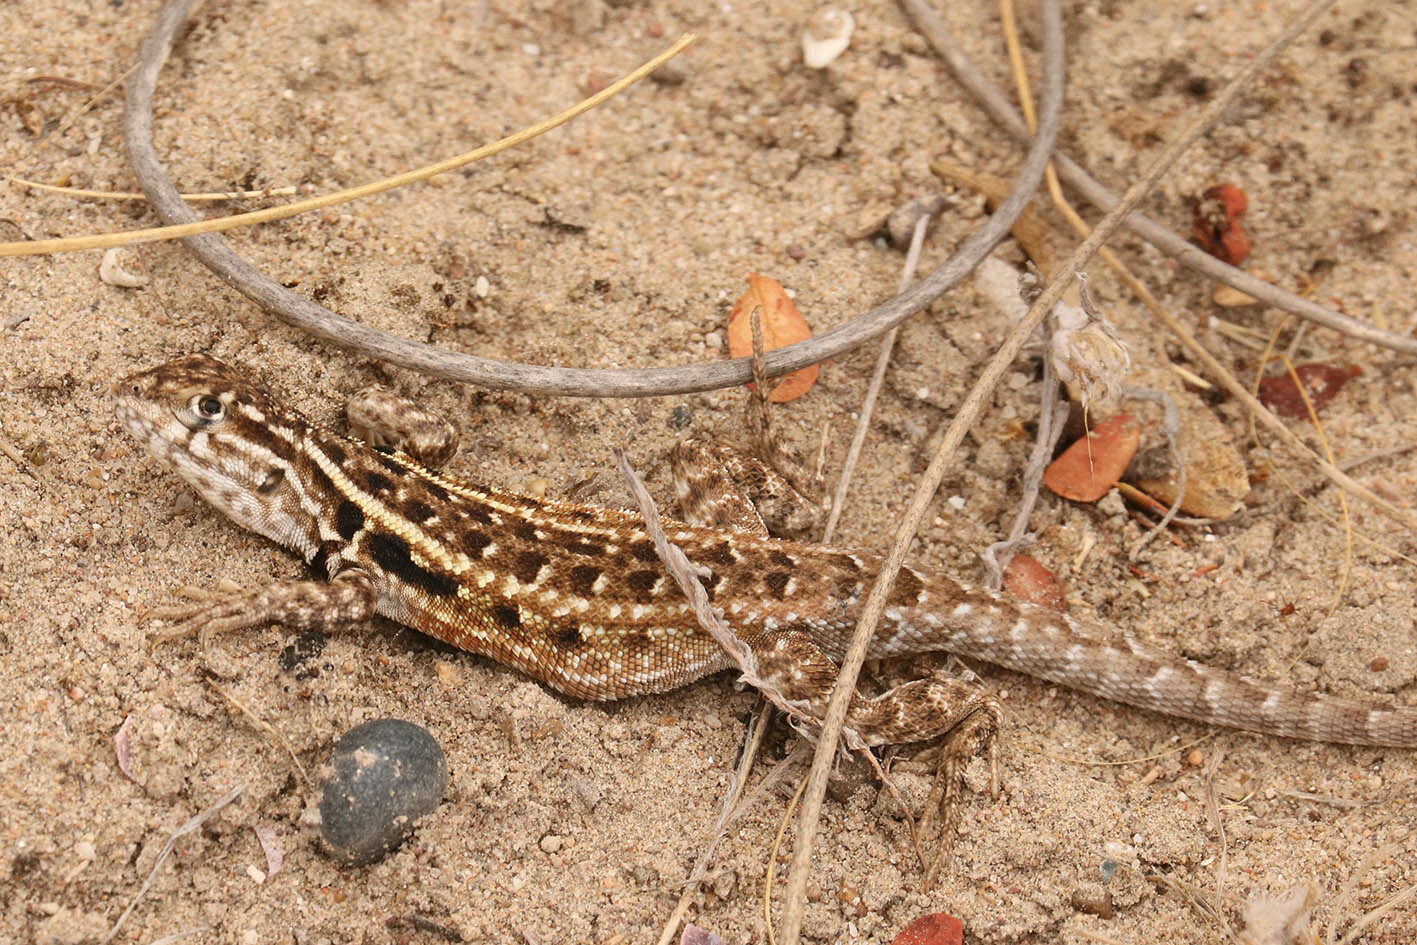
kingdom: Animalia
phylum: Chordata
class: Squamata
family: Liolaemidae
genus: Liolaemus
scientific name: Liolaemus darwinii
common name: Darwin's tree iguana
